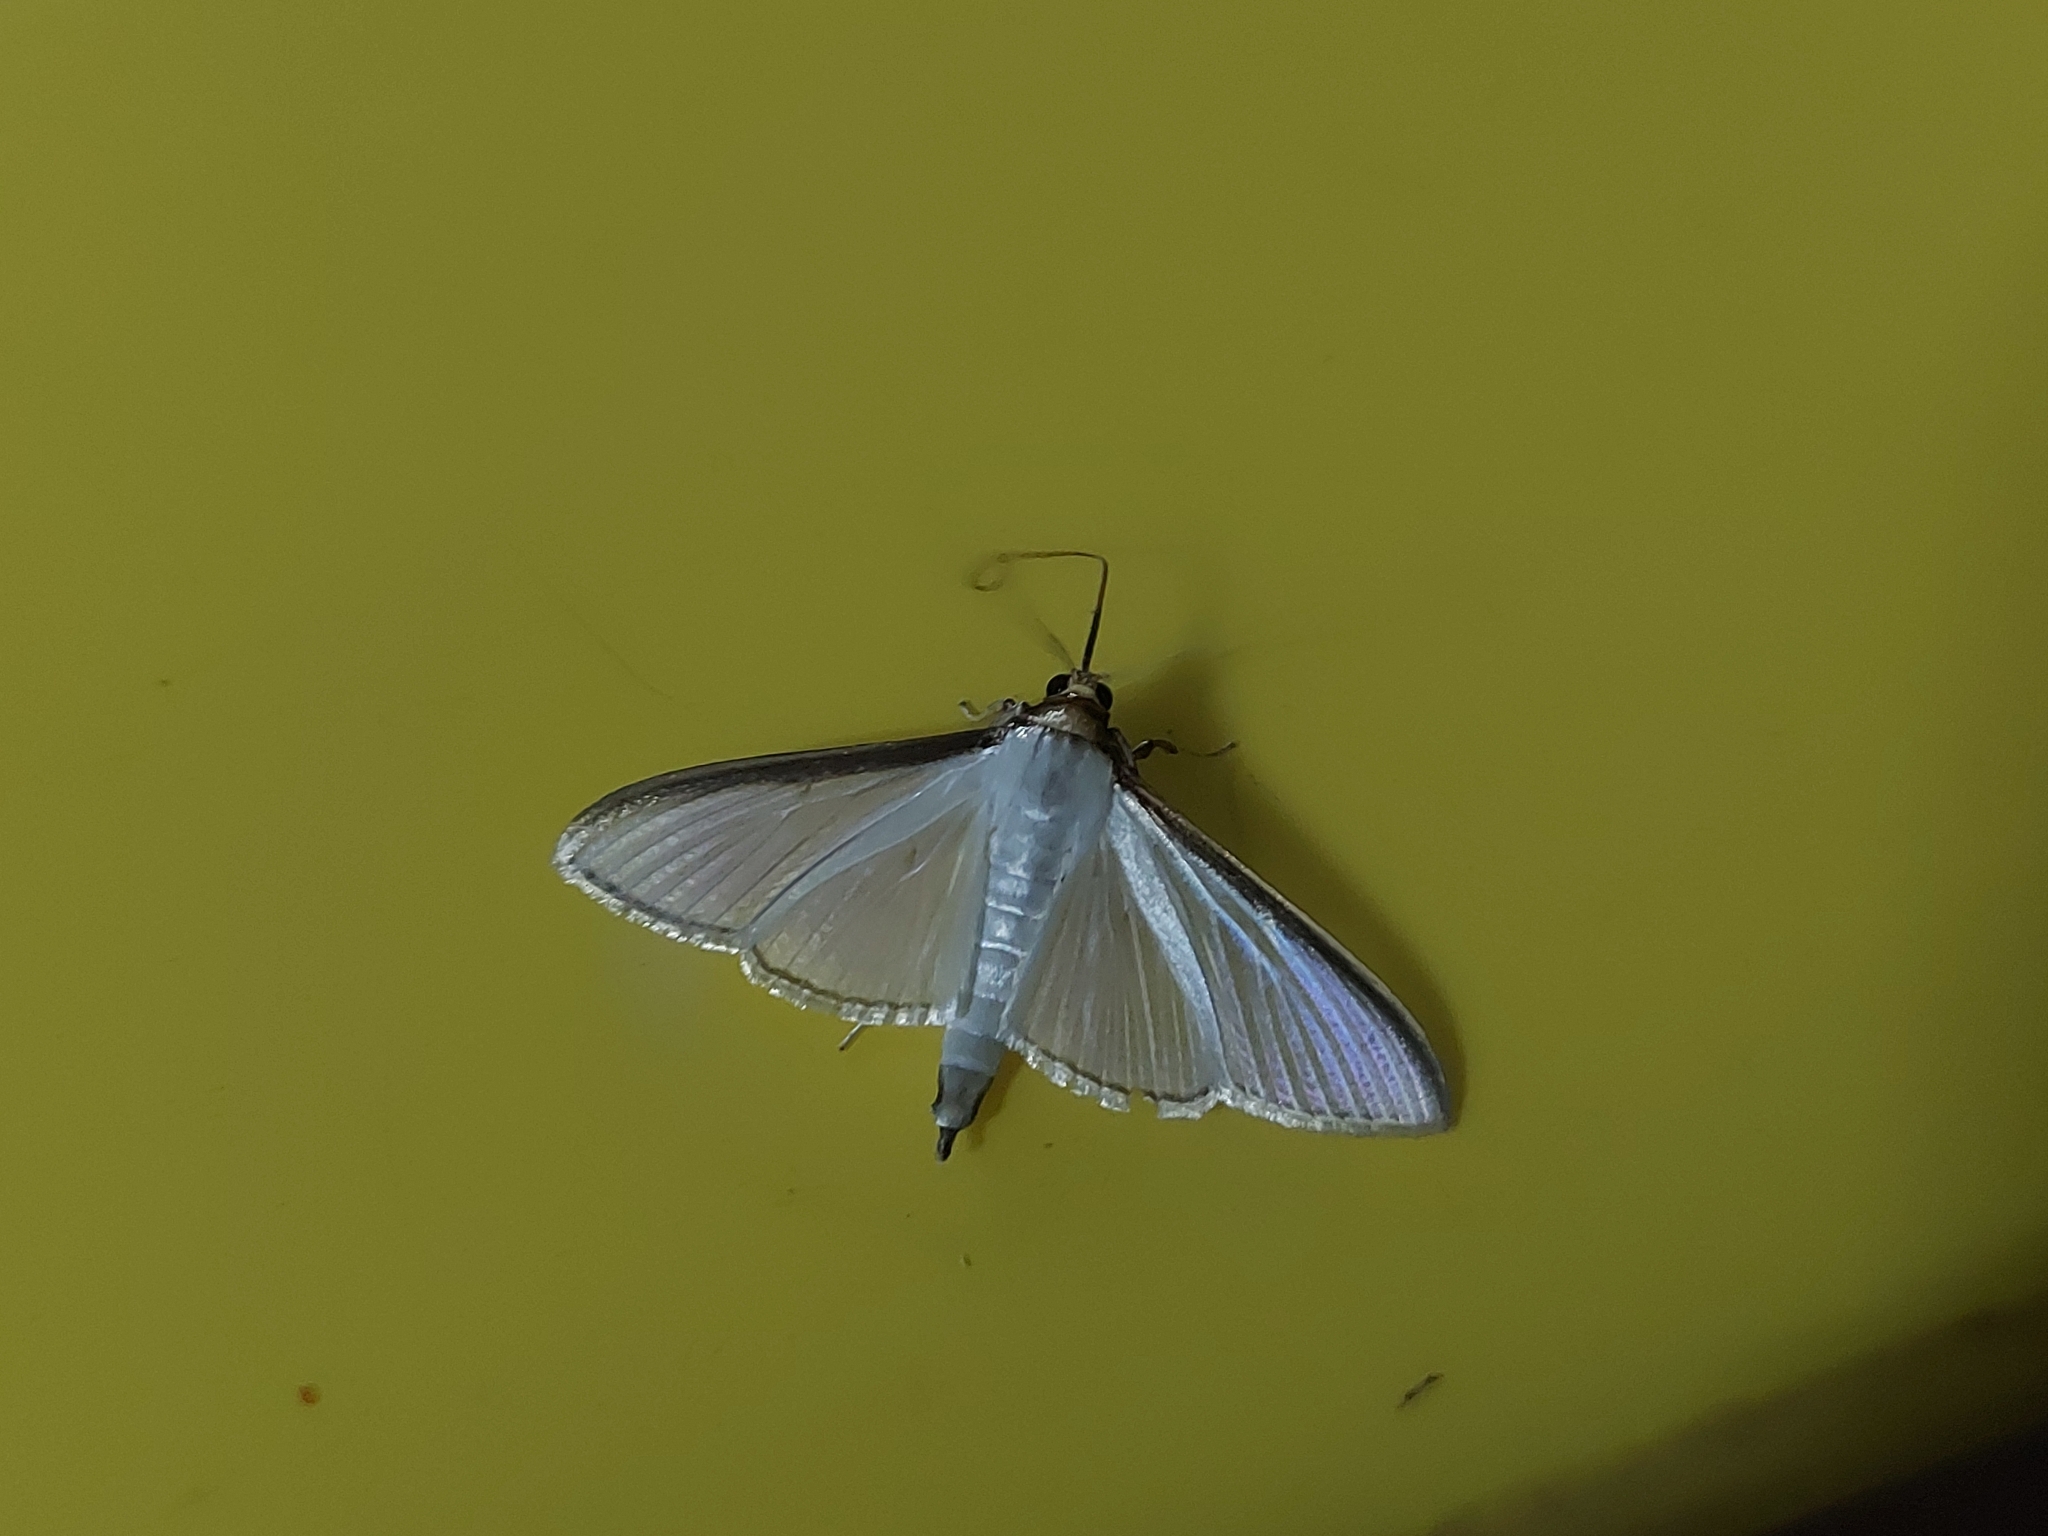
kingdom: Animalia
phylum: Arthropoda
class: Insecta
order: Lepidoptera
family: Crambidae
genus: Cydalima
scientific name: Cydalima laticostalis
